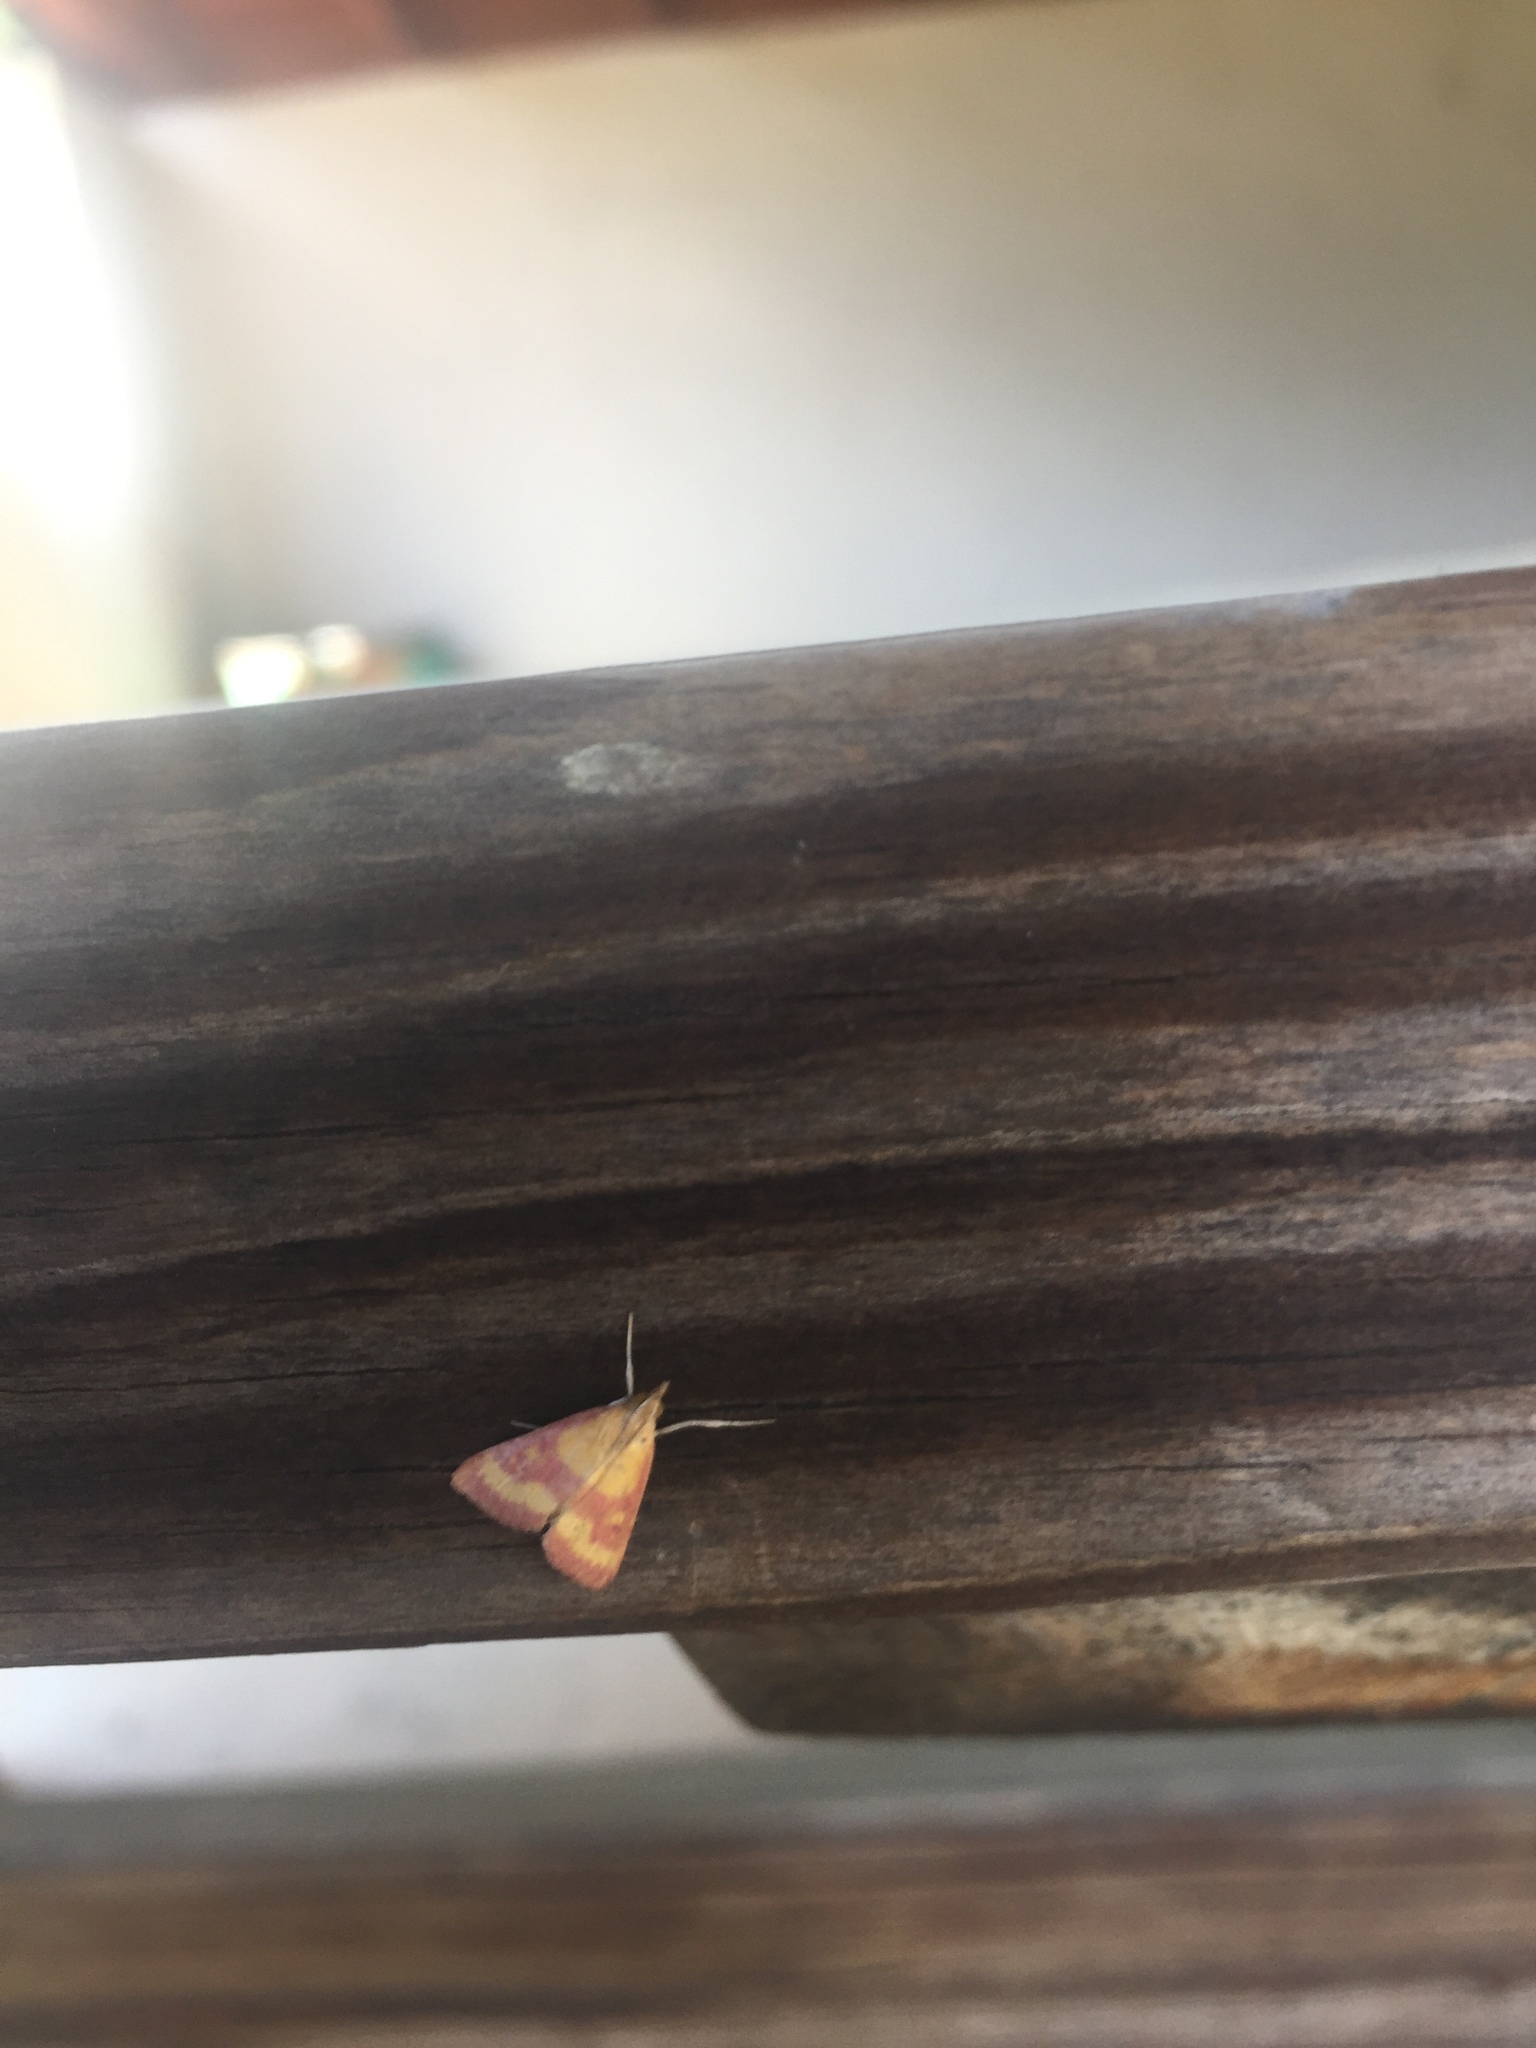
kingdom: Animalia
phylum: Arthropoda
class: Insecta
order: Lepidoptera
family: Crambidae
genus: Pyrausta
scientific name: Pyrausta laticlavia
